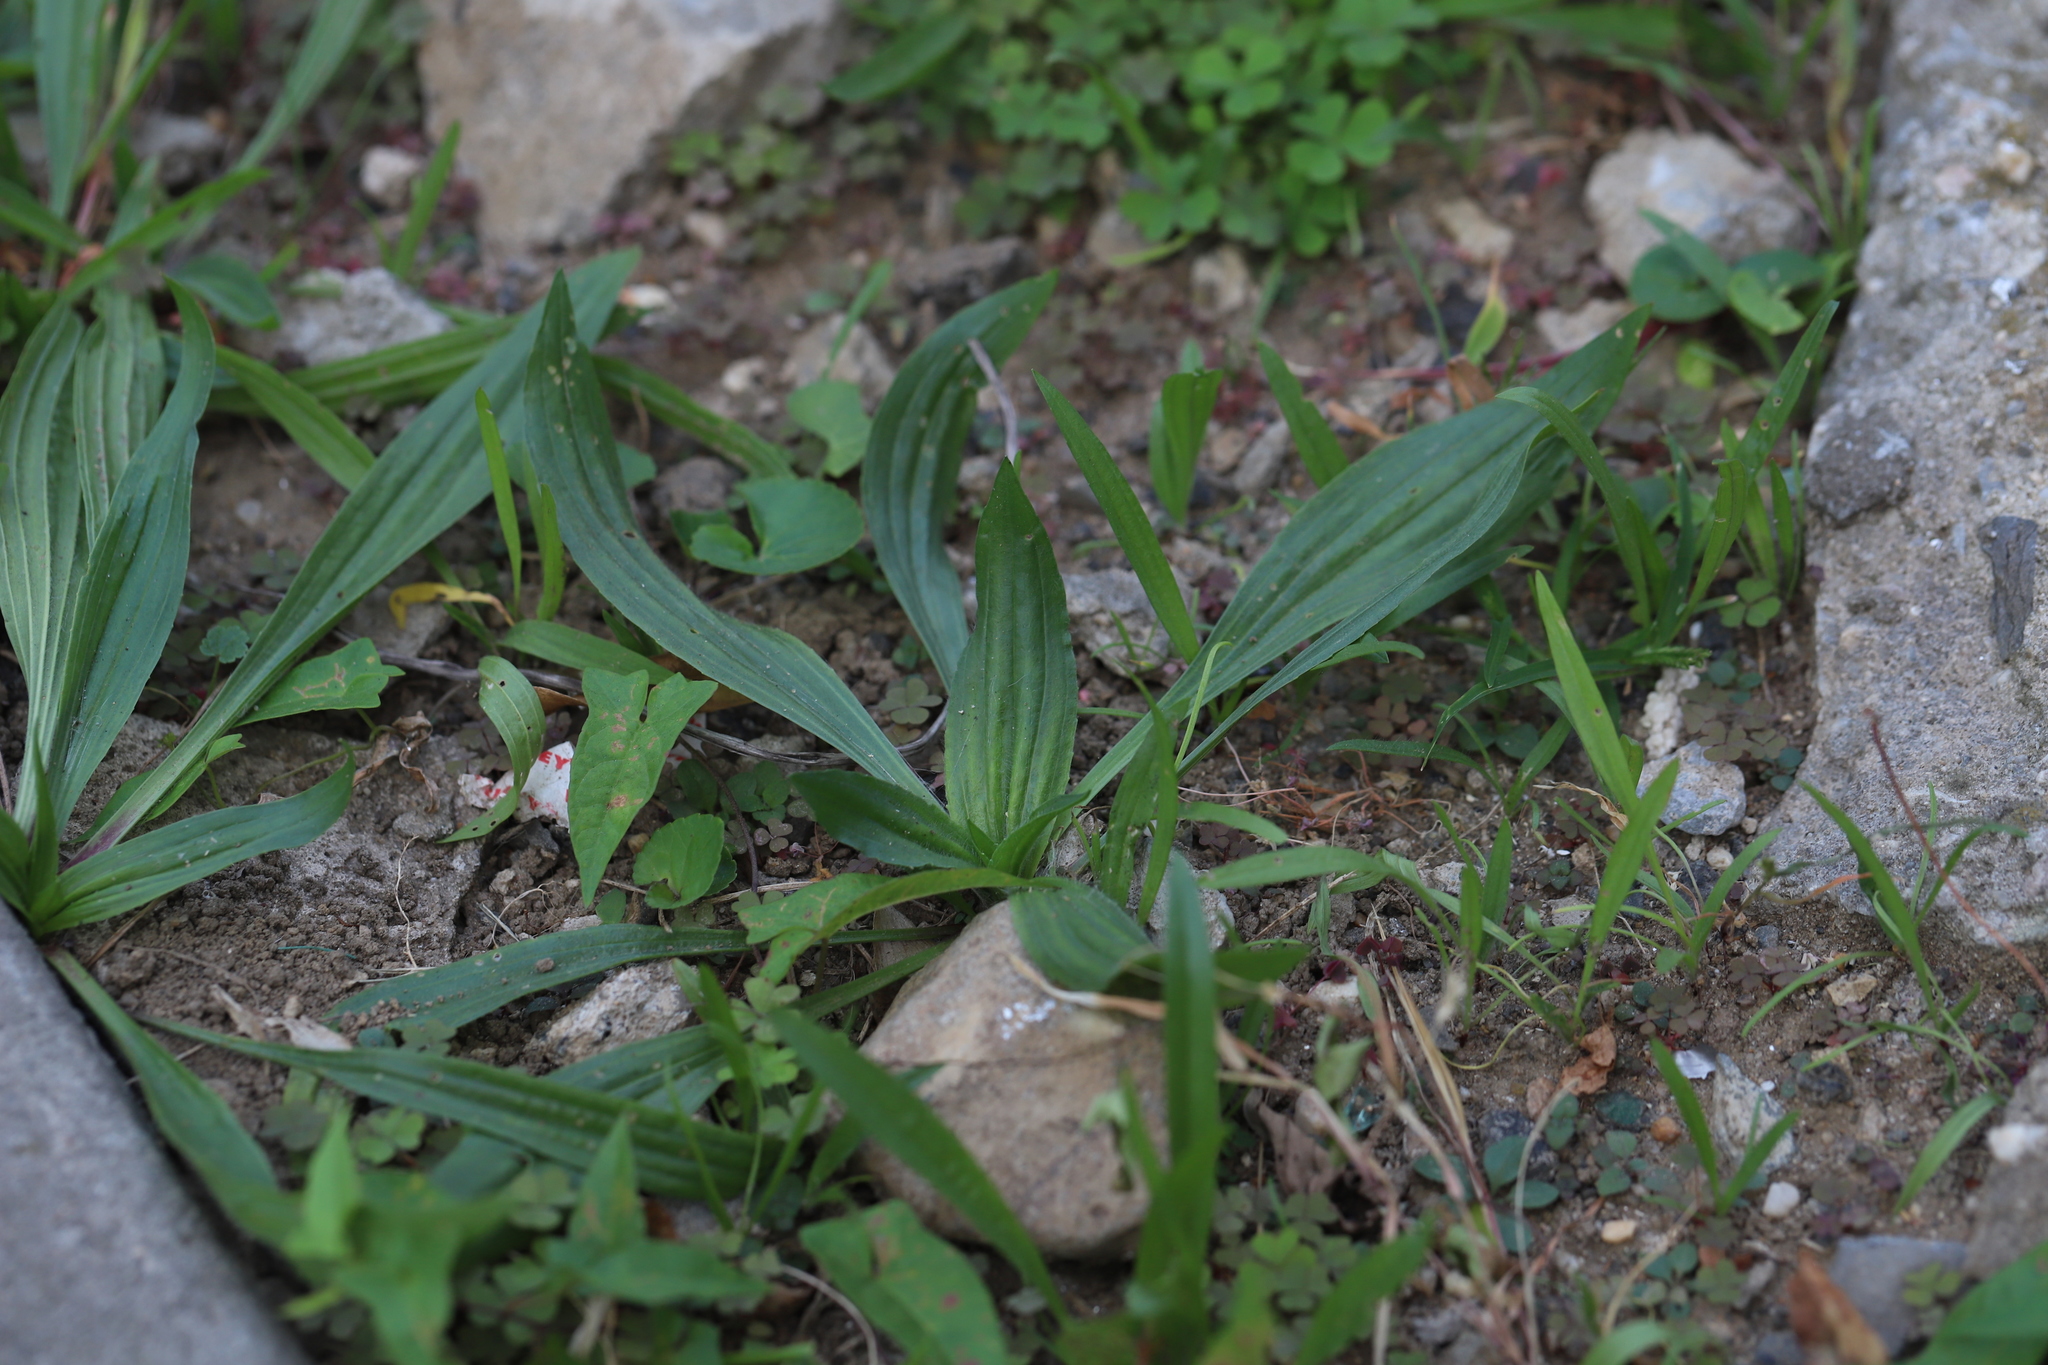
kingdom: Plantae
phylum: Tracheophyta
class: Magnoliopsida
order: Lamiales
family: Plantaginaceae
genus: Plantago
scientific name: Plantago lanceolata
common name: Ribwort plantain
